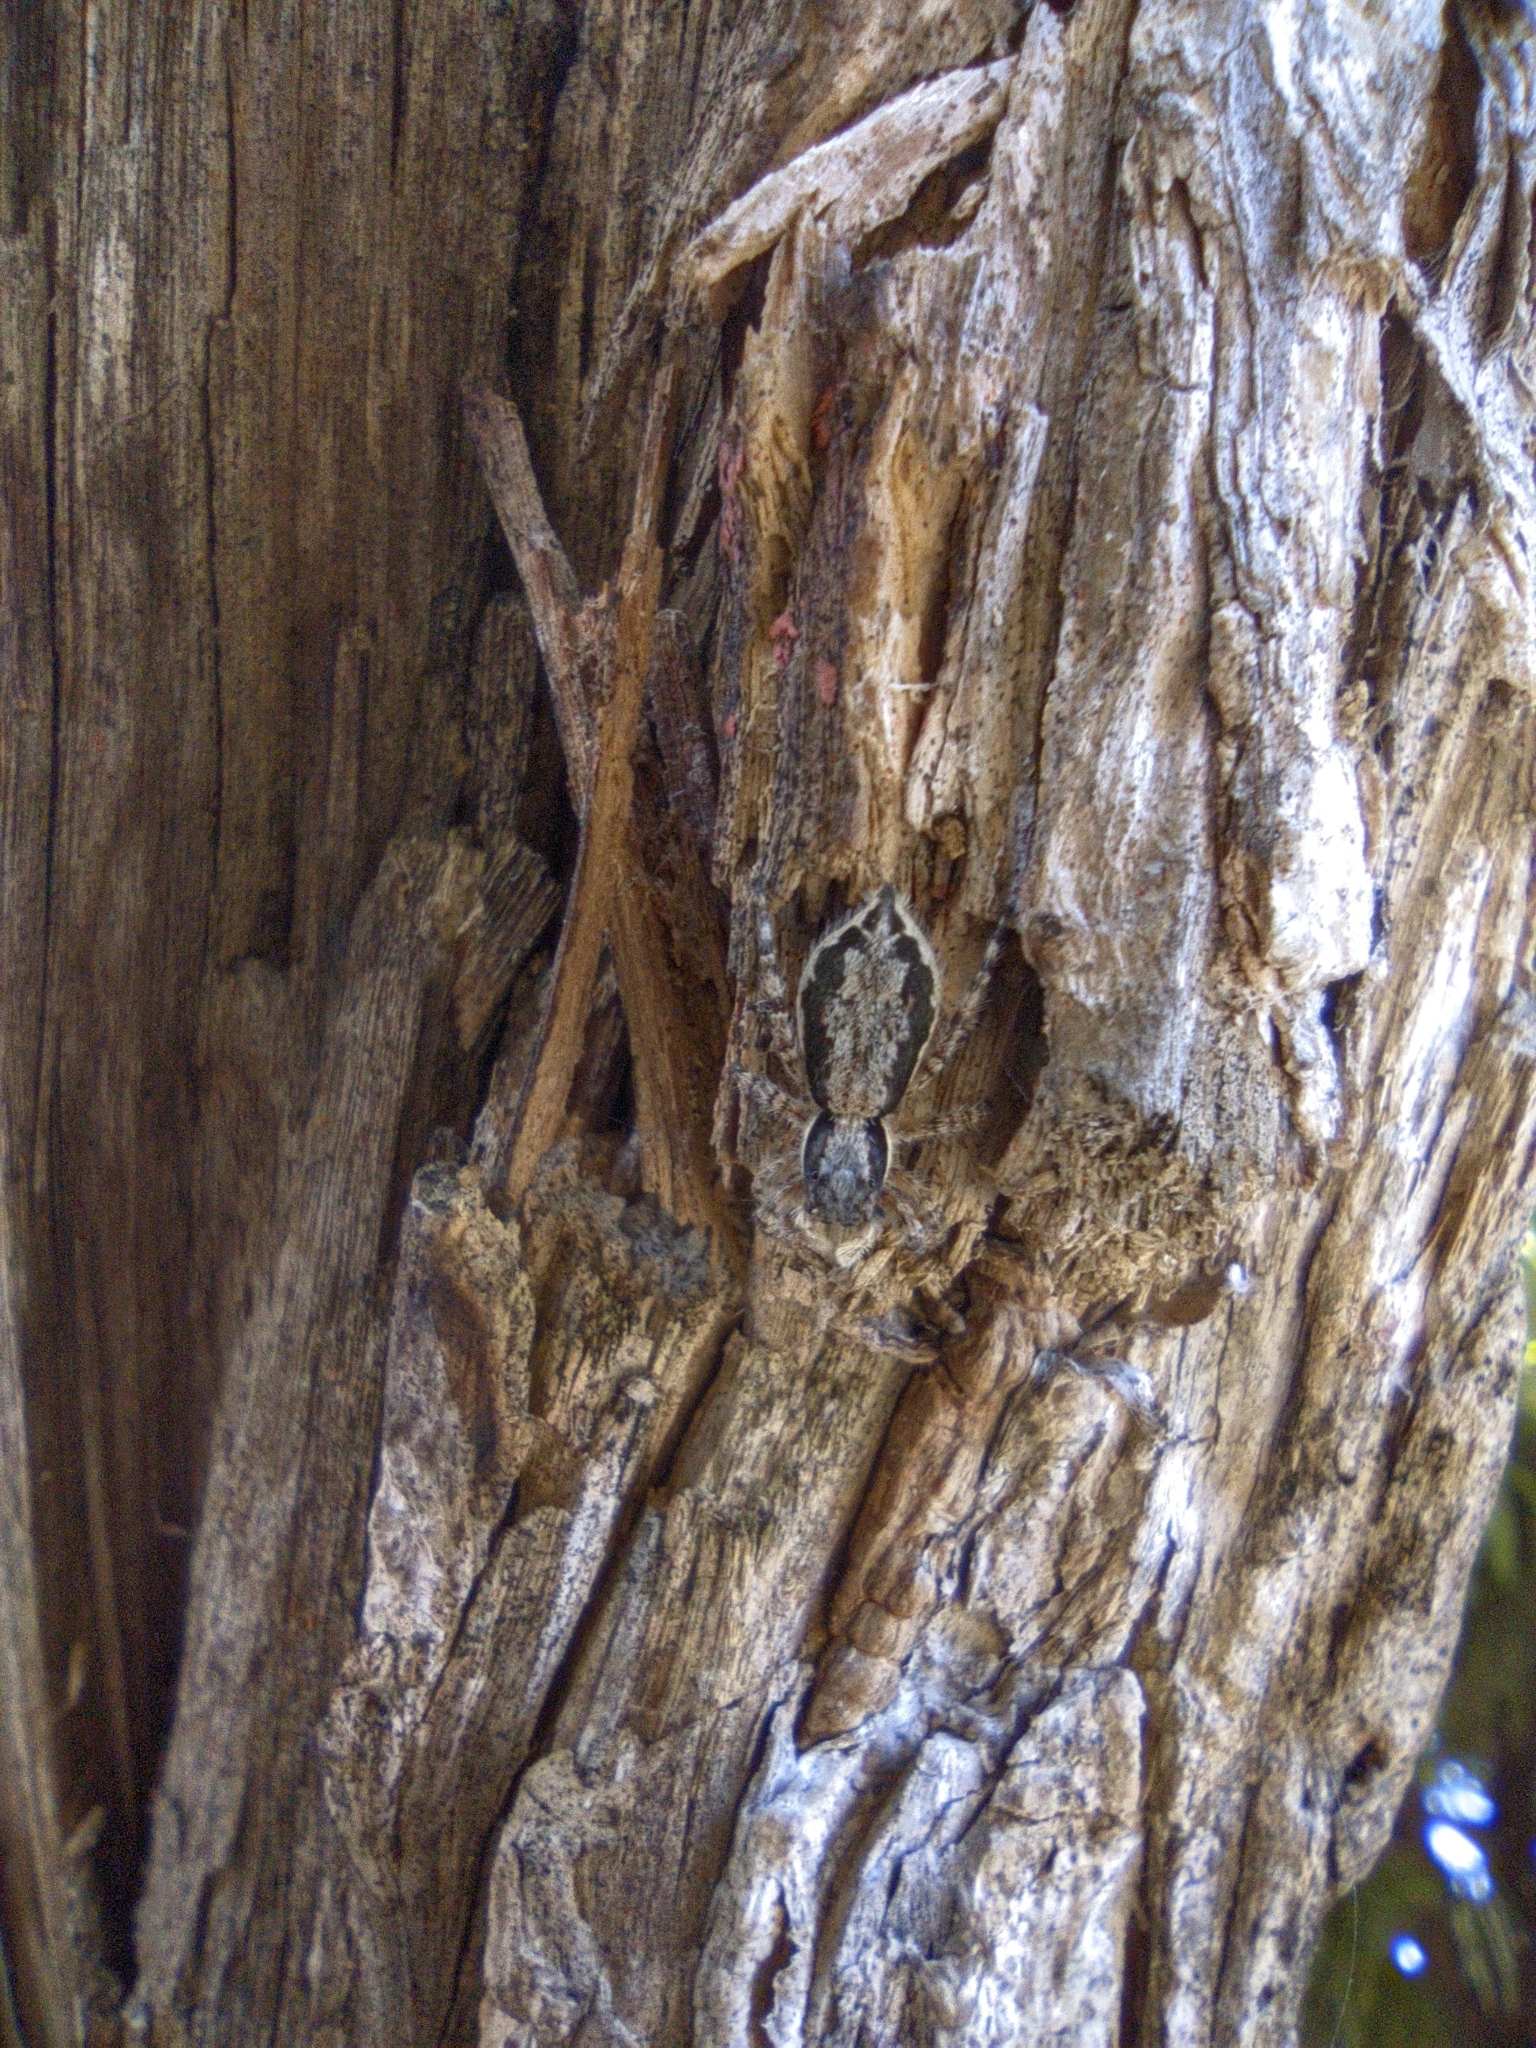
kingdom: Animalia
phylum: Arthropoda
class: Arachnida
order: Araneae
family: Salticidae
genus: Menemerus
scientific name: Menemerus bivittatus
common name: Gray wall jumper
